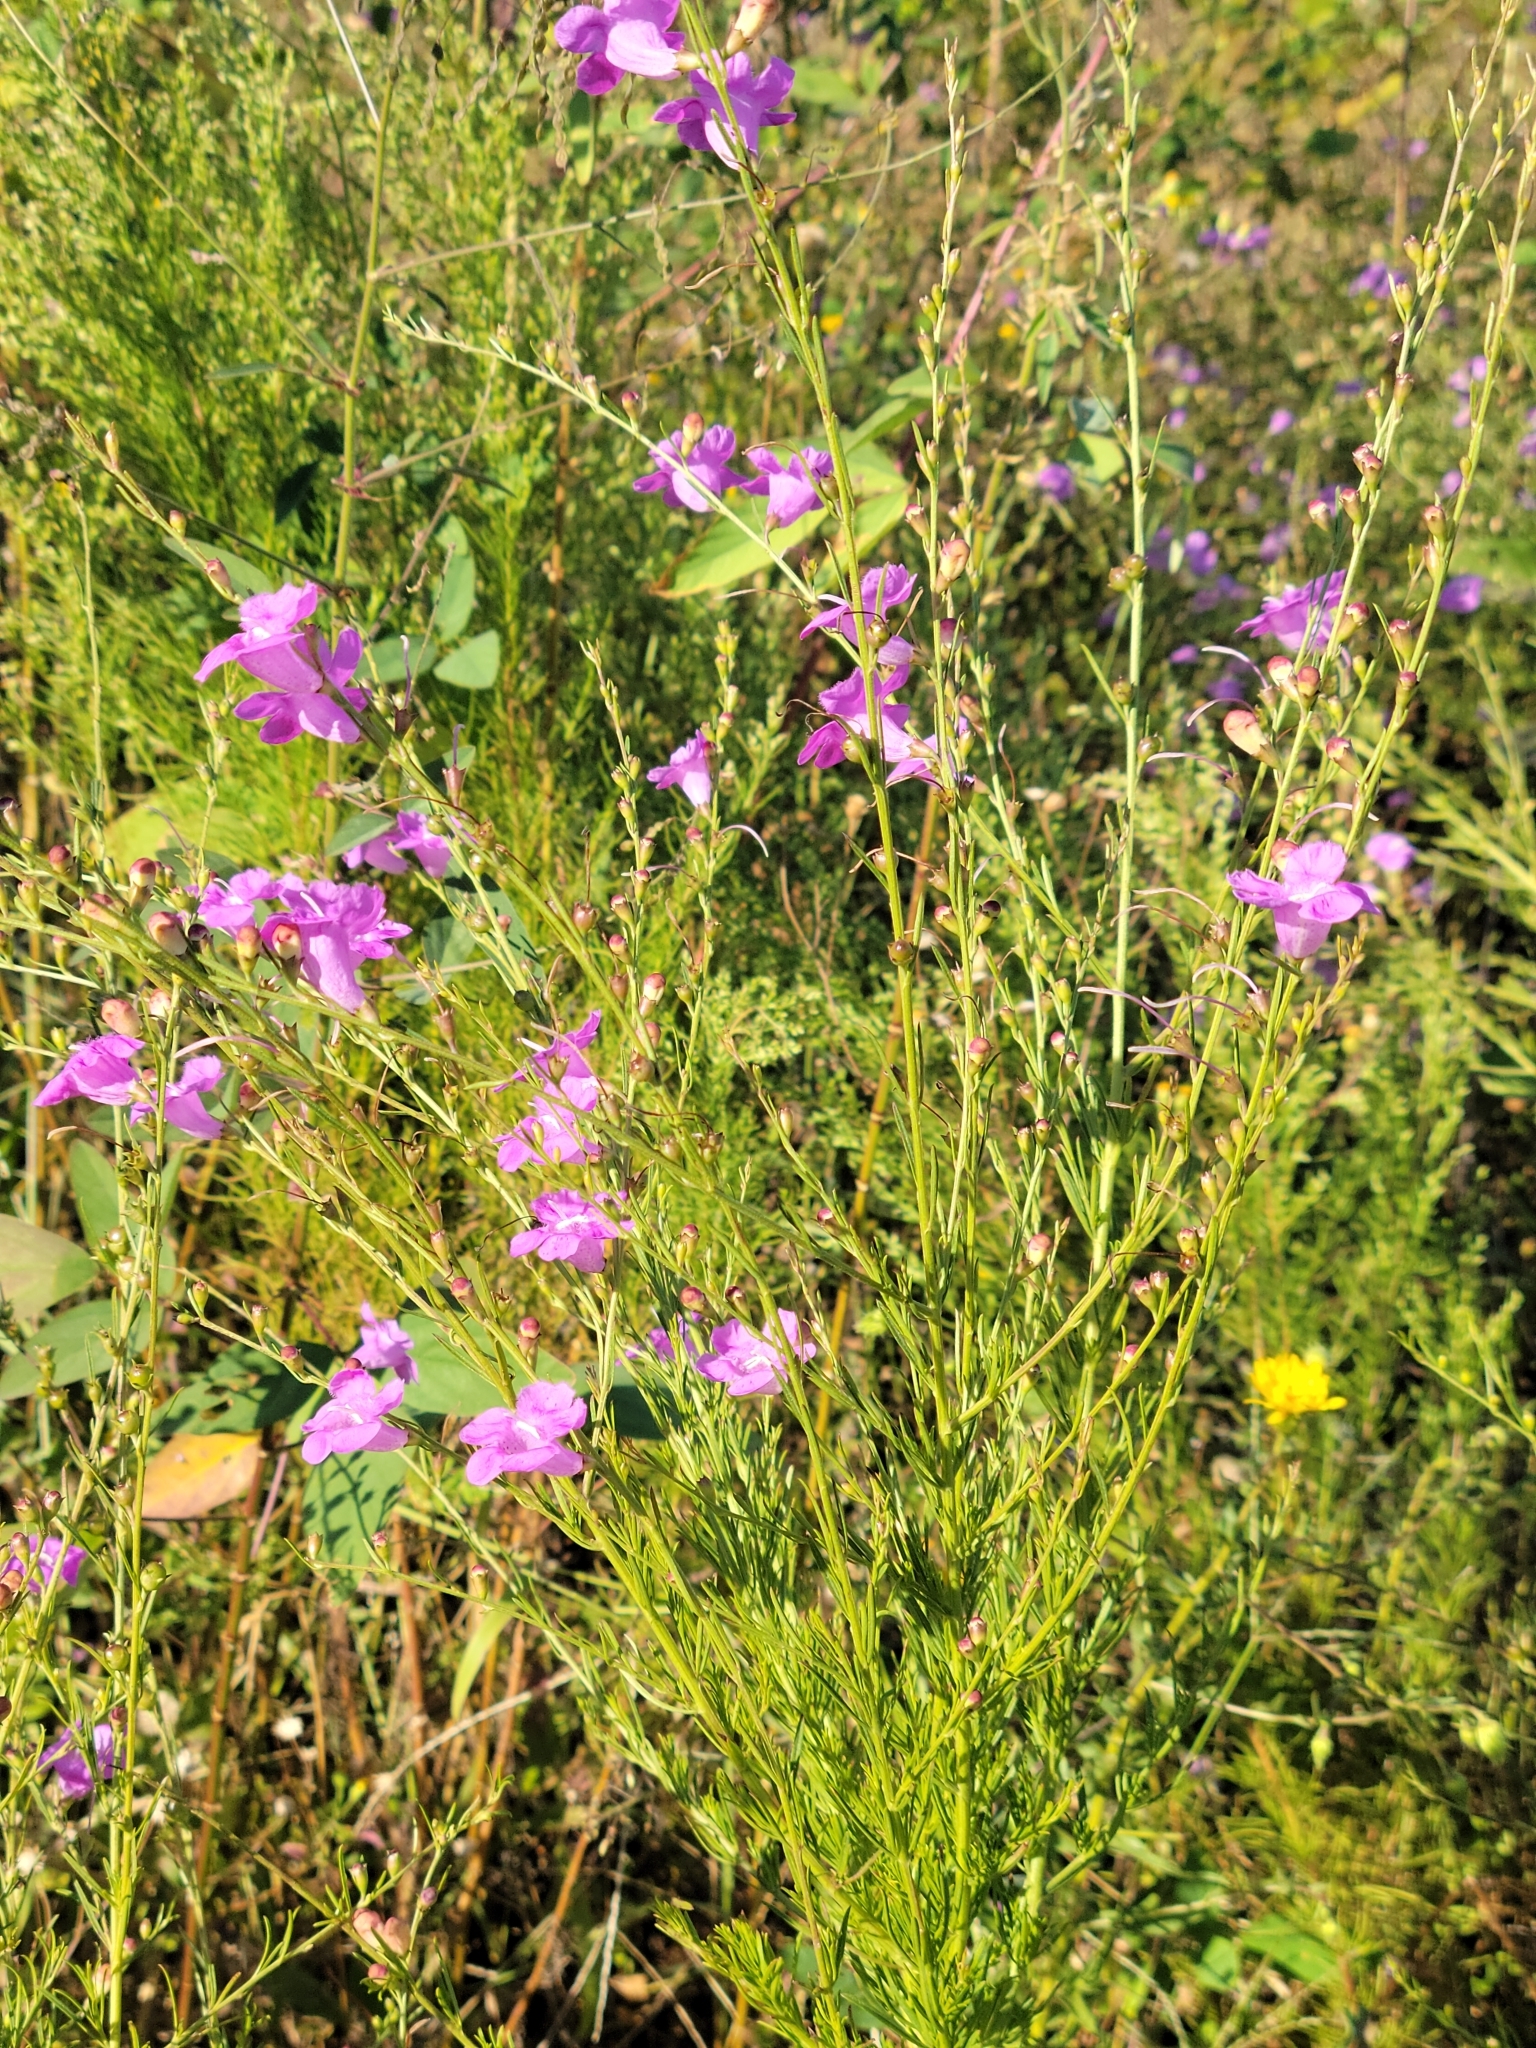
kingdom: Plantae
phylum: Tracheophyta
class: Magnoliopsida
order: Lamiales
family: Orobanchaceae
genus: Agalinis
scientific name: Agalinis fasciculata
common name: Beach false foxglove
